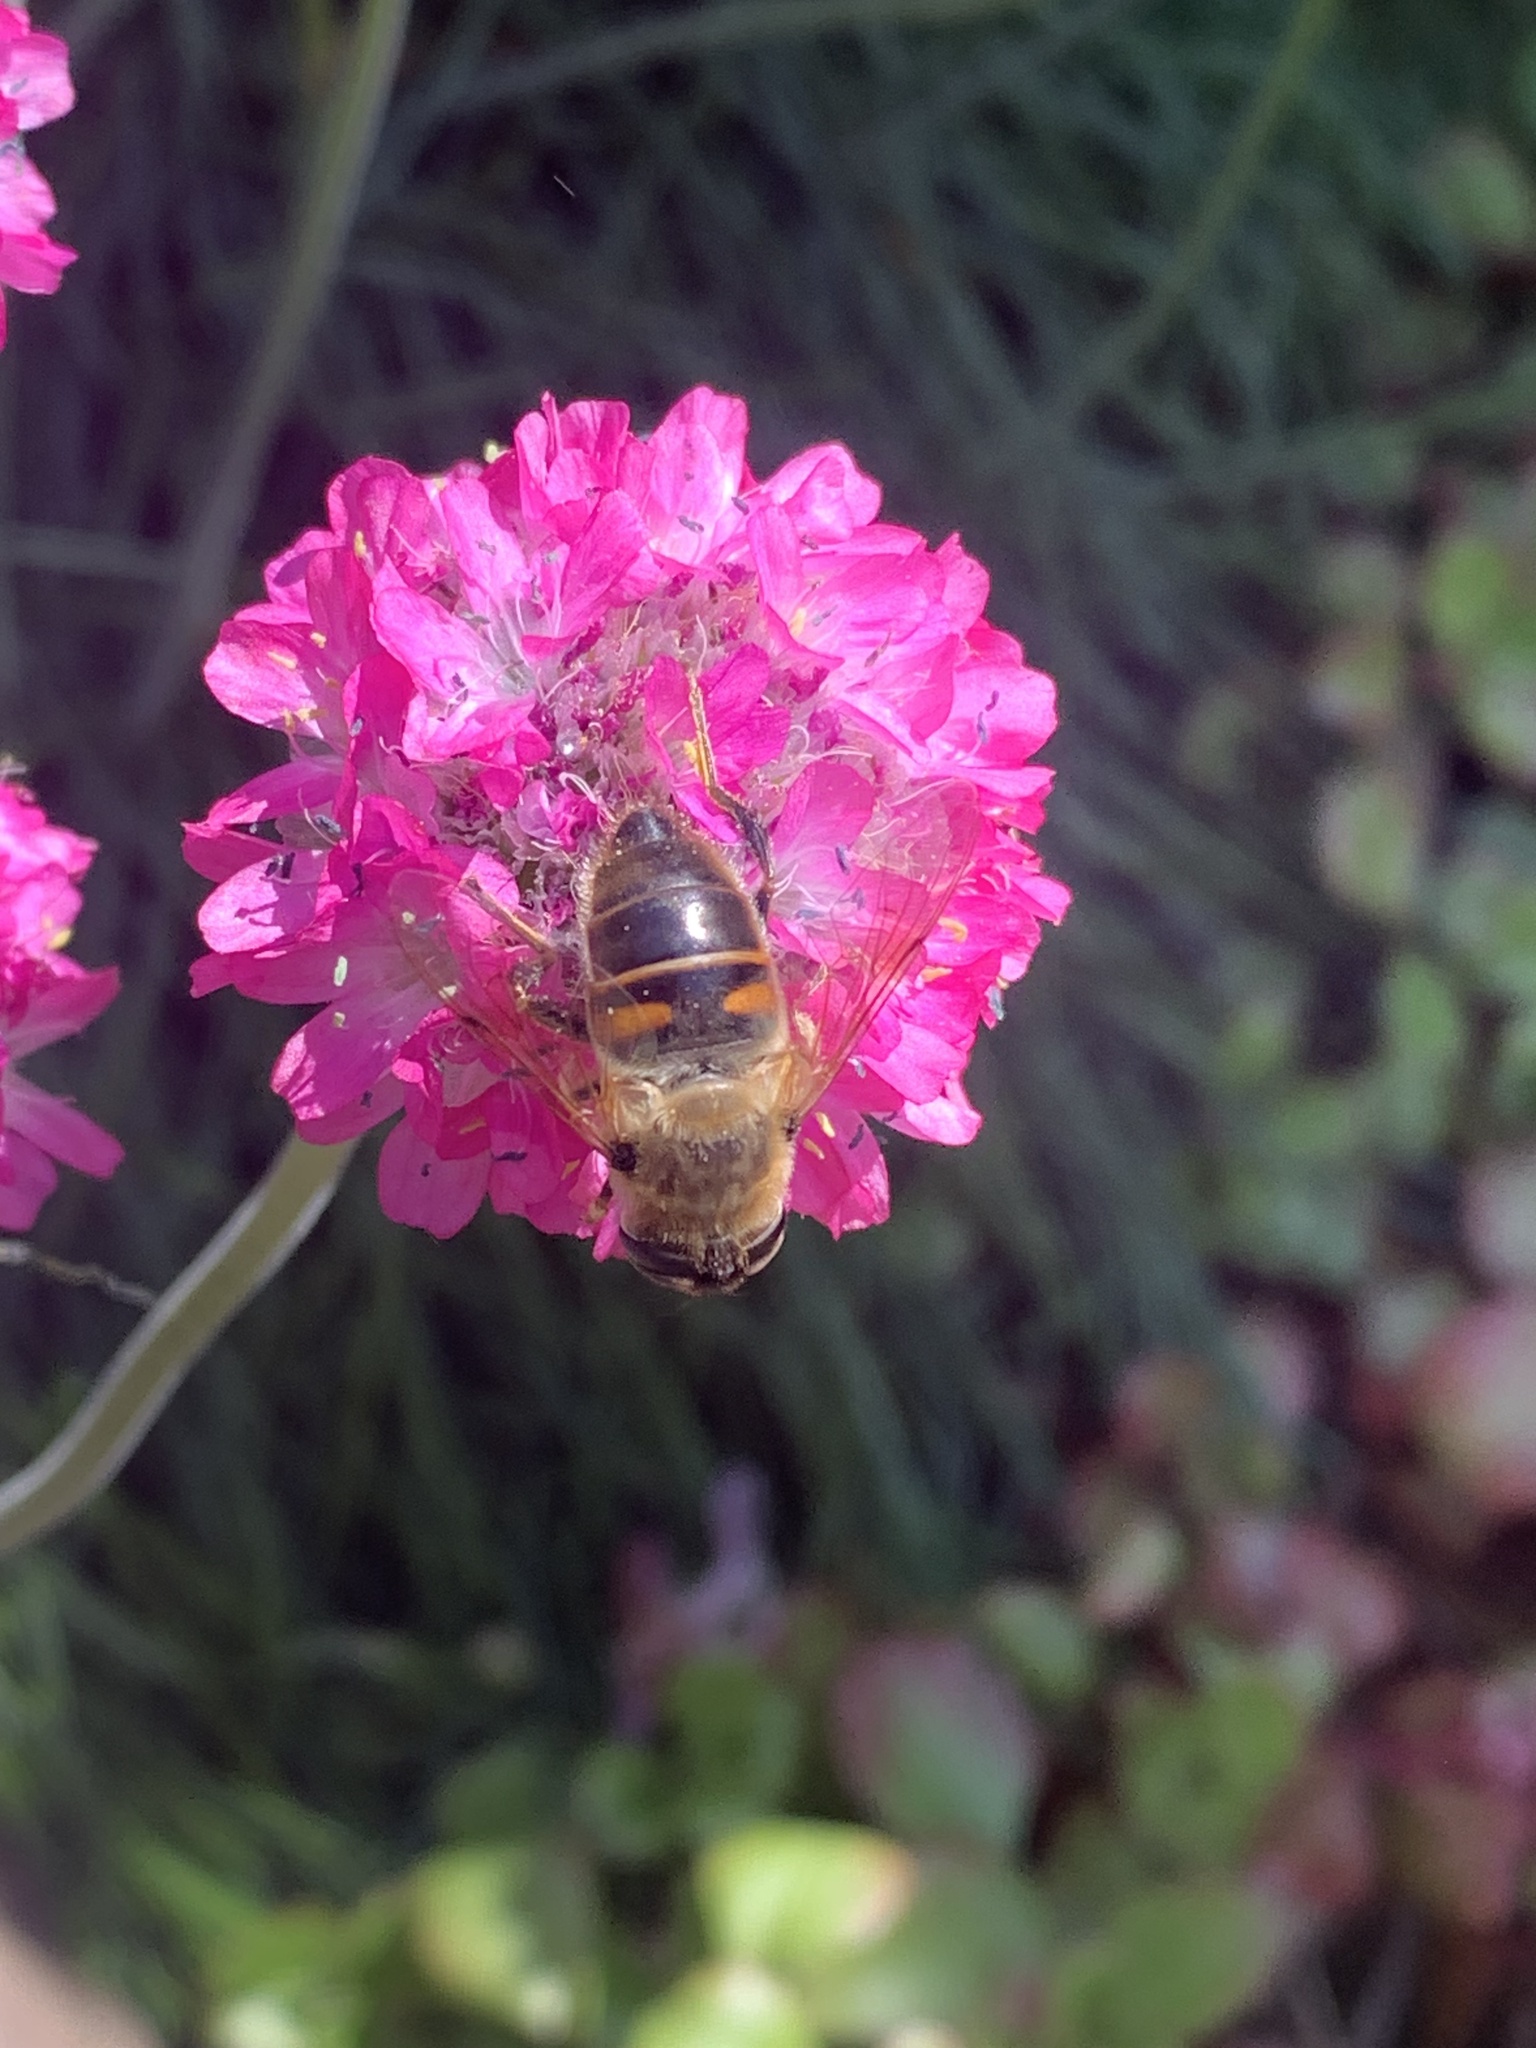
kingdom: Animalia
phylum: Arthropoda
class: Insecta
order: Diptera
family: Syrphidae
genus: Eristalis
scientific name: Eristalis tenax
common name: Drone fly
